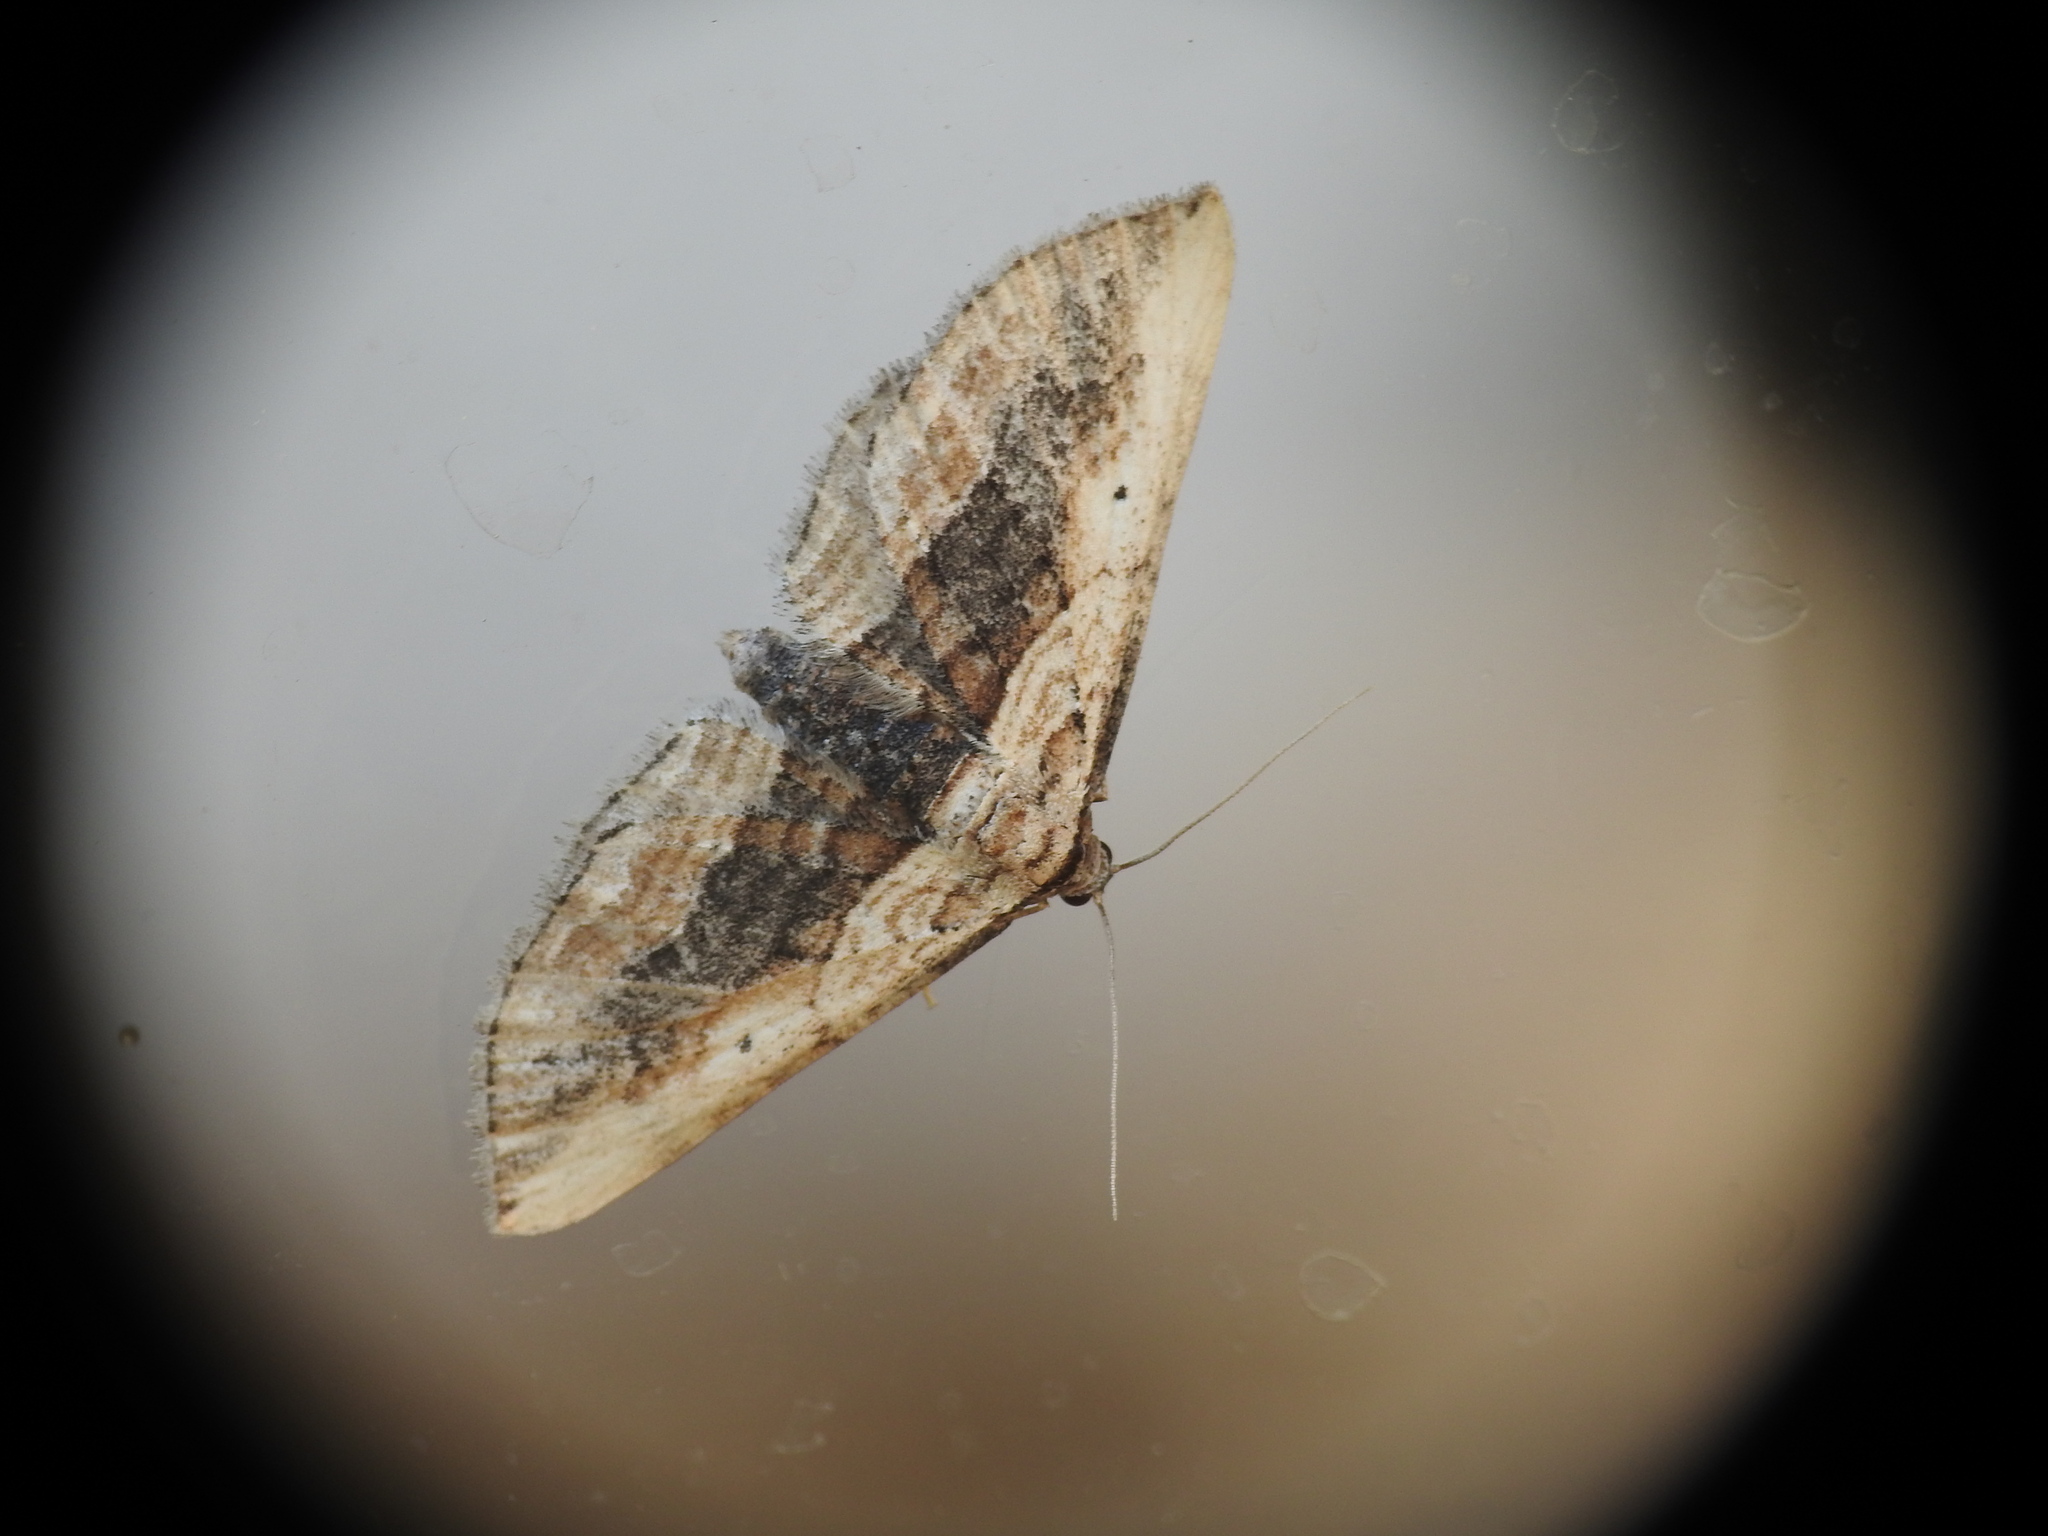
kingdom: Animalia
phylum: Arthropoda
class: Insecta
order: Lepidoptera
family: Geometridae
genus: Horisme
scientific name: Horisme vitalbata
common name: Small waved umber
